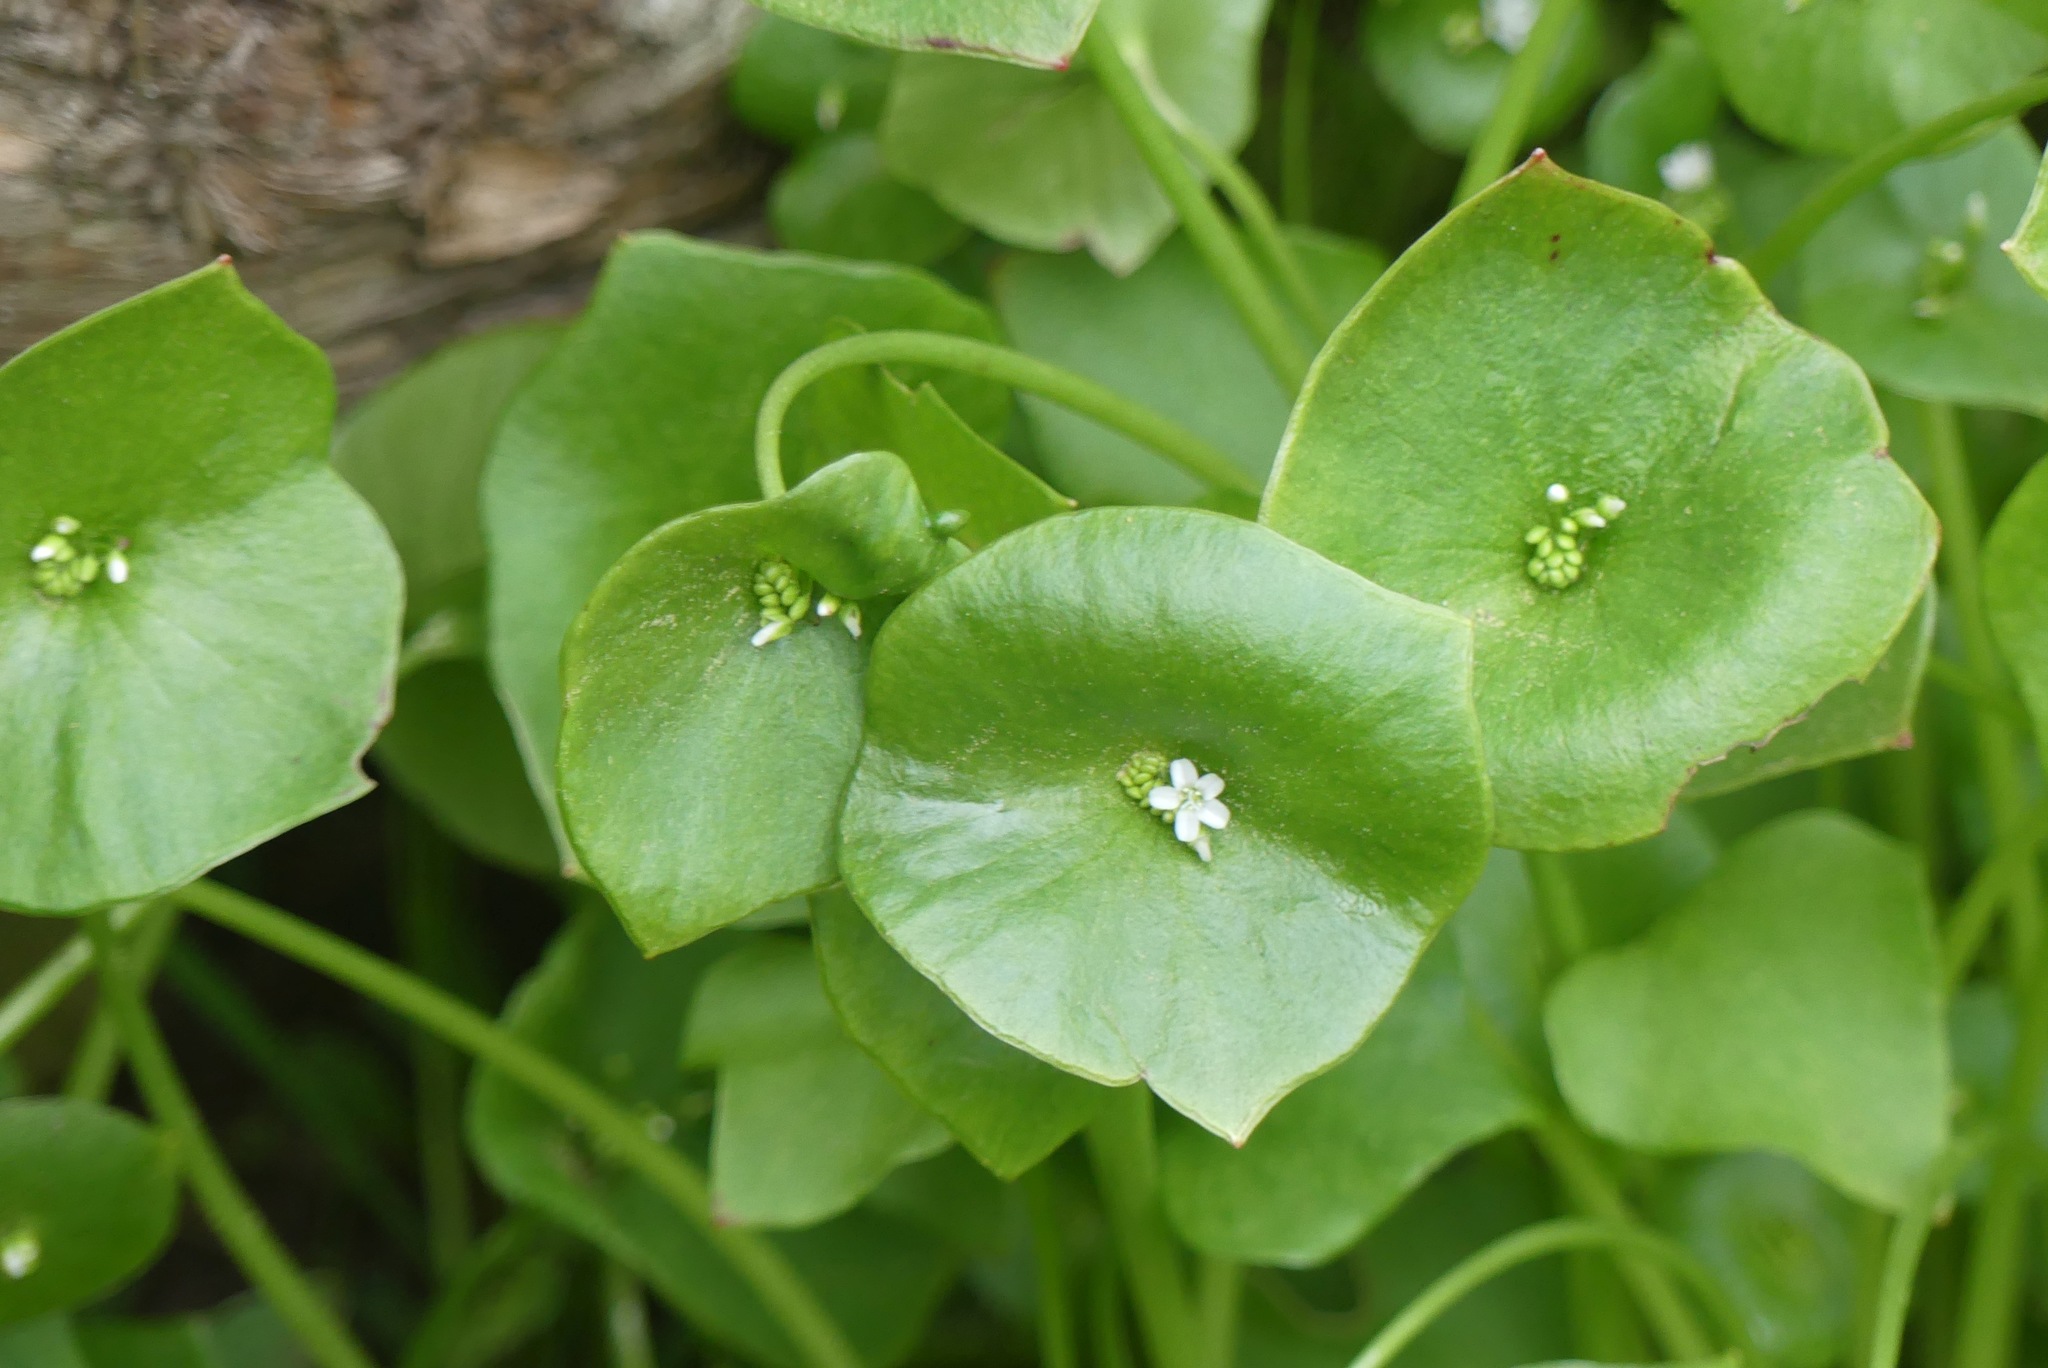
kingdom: Plantae
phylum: Tracheophyta
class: Magnoliopsida
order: Caryophyllales
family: Montiaceae
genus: Claytonia
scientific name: Claytonia perfoliata
